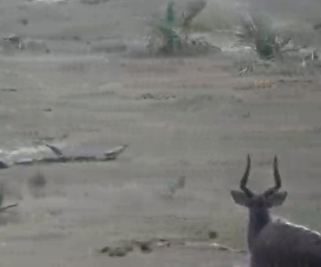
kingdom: Animalia
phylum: Chordata
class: Mammalia
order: Artiodactyla
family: Bovidae
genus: Tragelaphus
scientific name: Tragelaphus angasii
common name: Nyala
